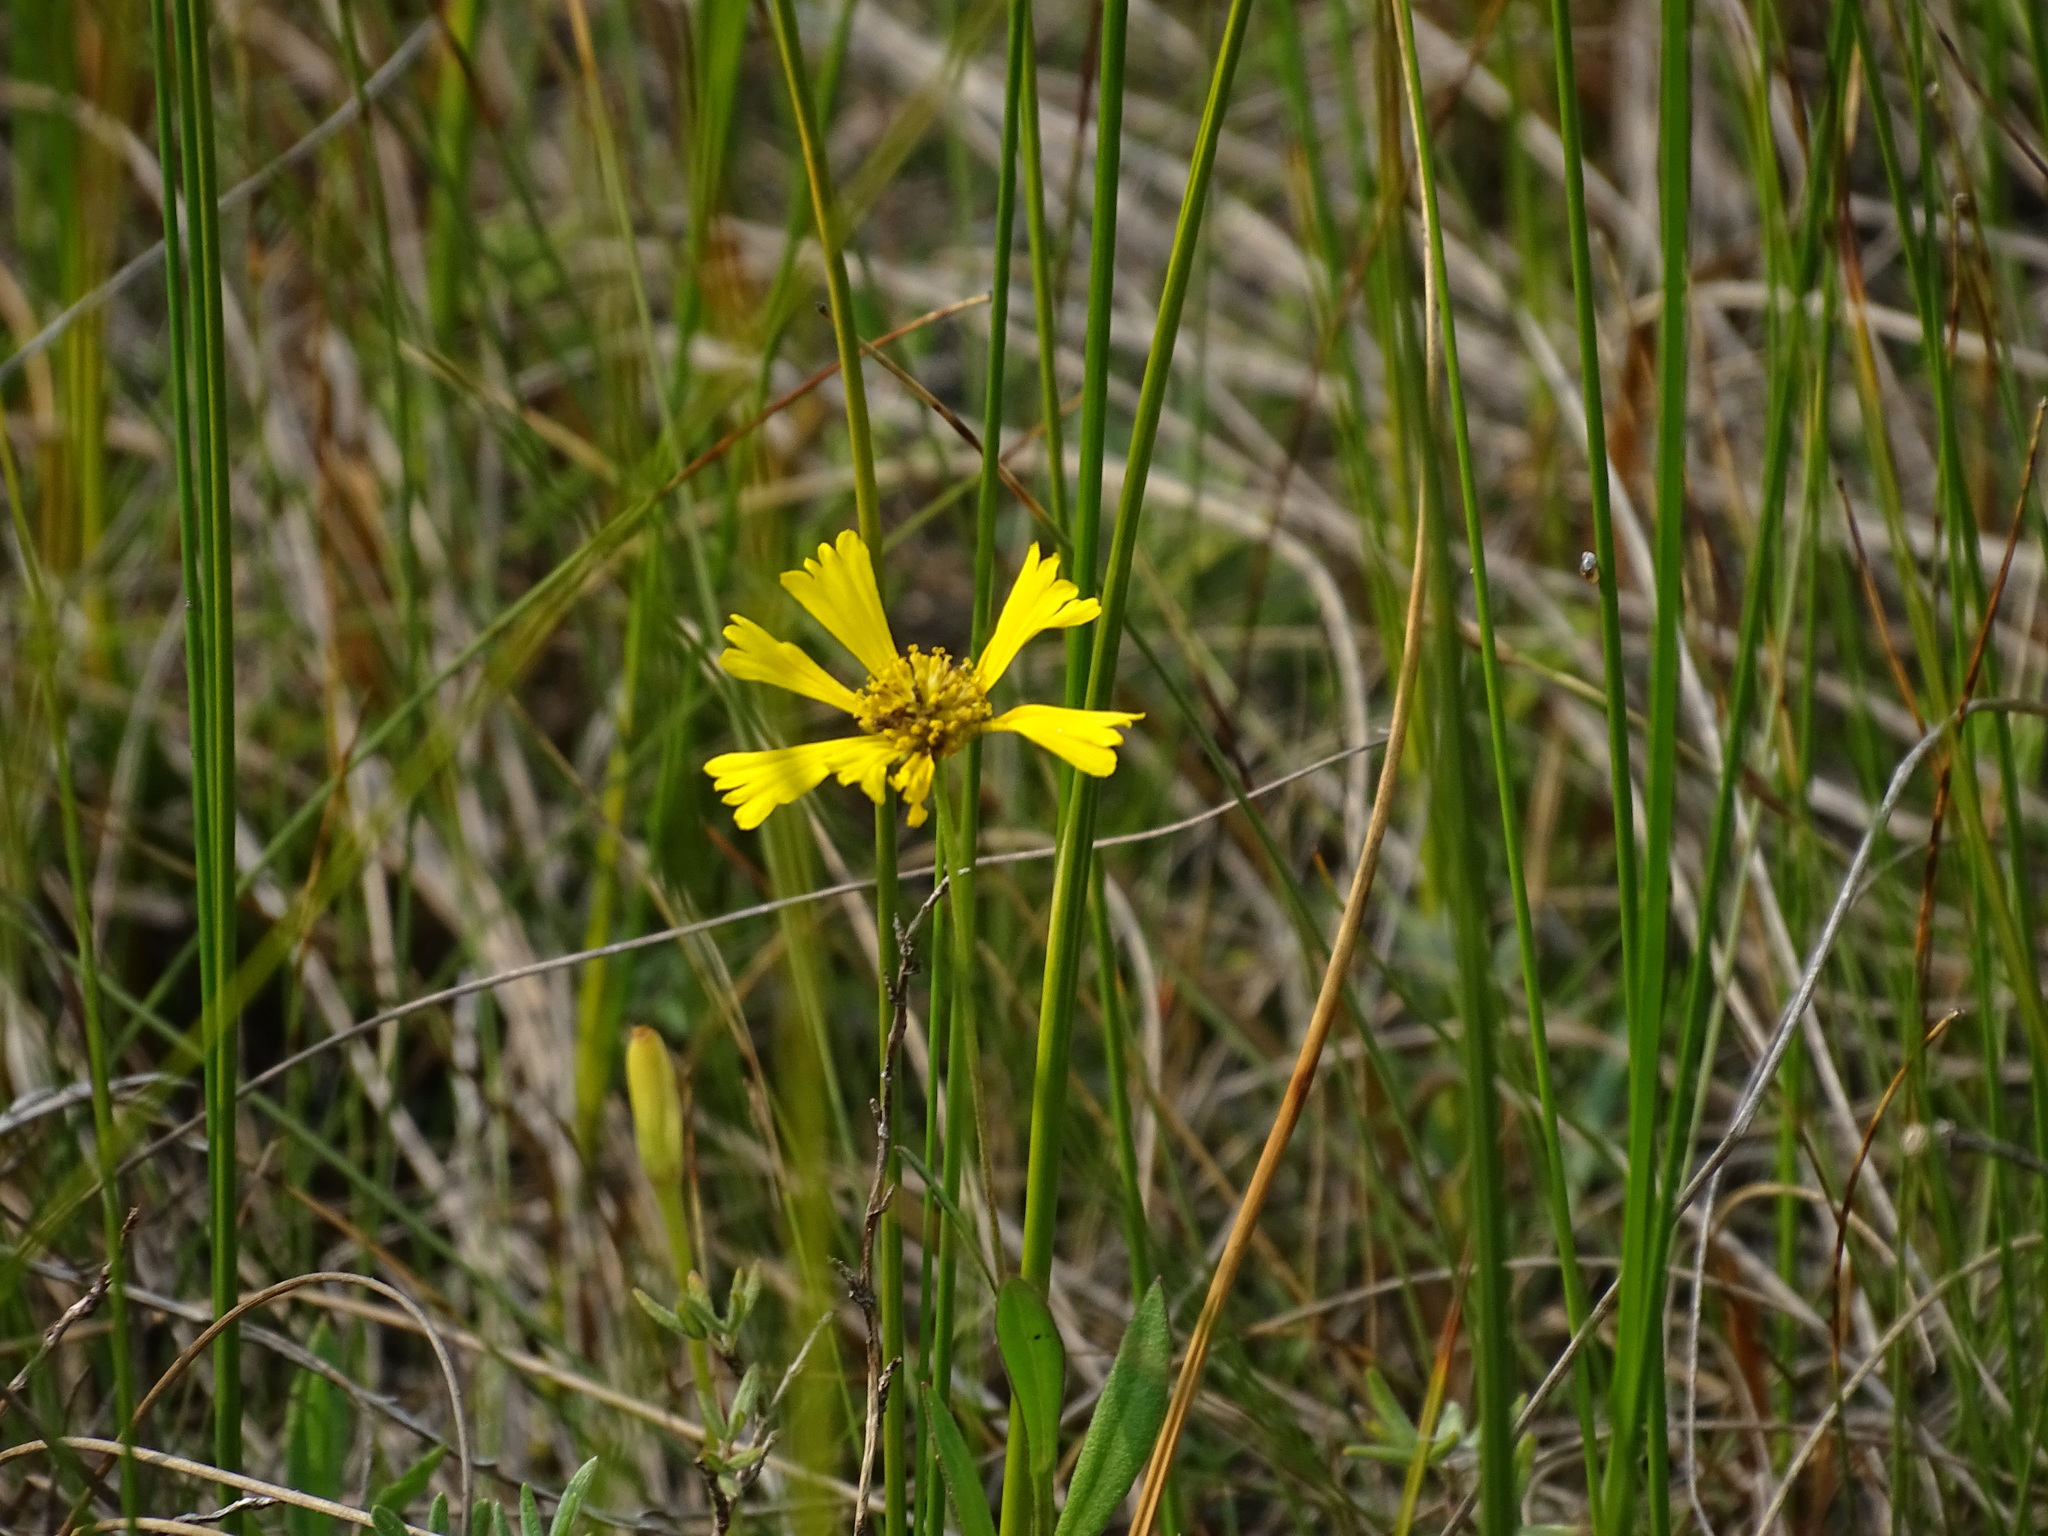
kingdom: Plantae
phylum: Tracheophyta
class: Magnoliopsida
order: Asterales
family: Asteraceae
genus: Helenium
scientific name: Helenium autumnale
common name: Sneezeweed
